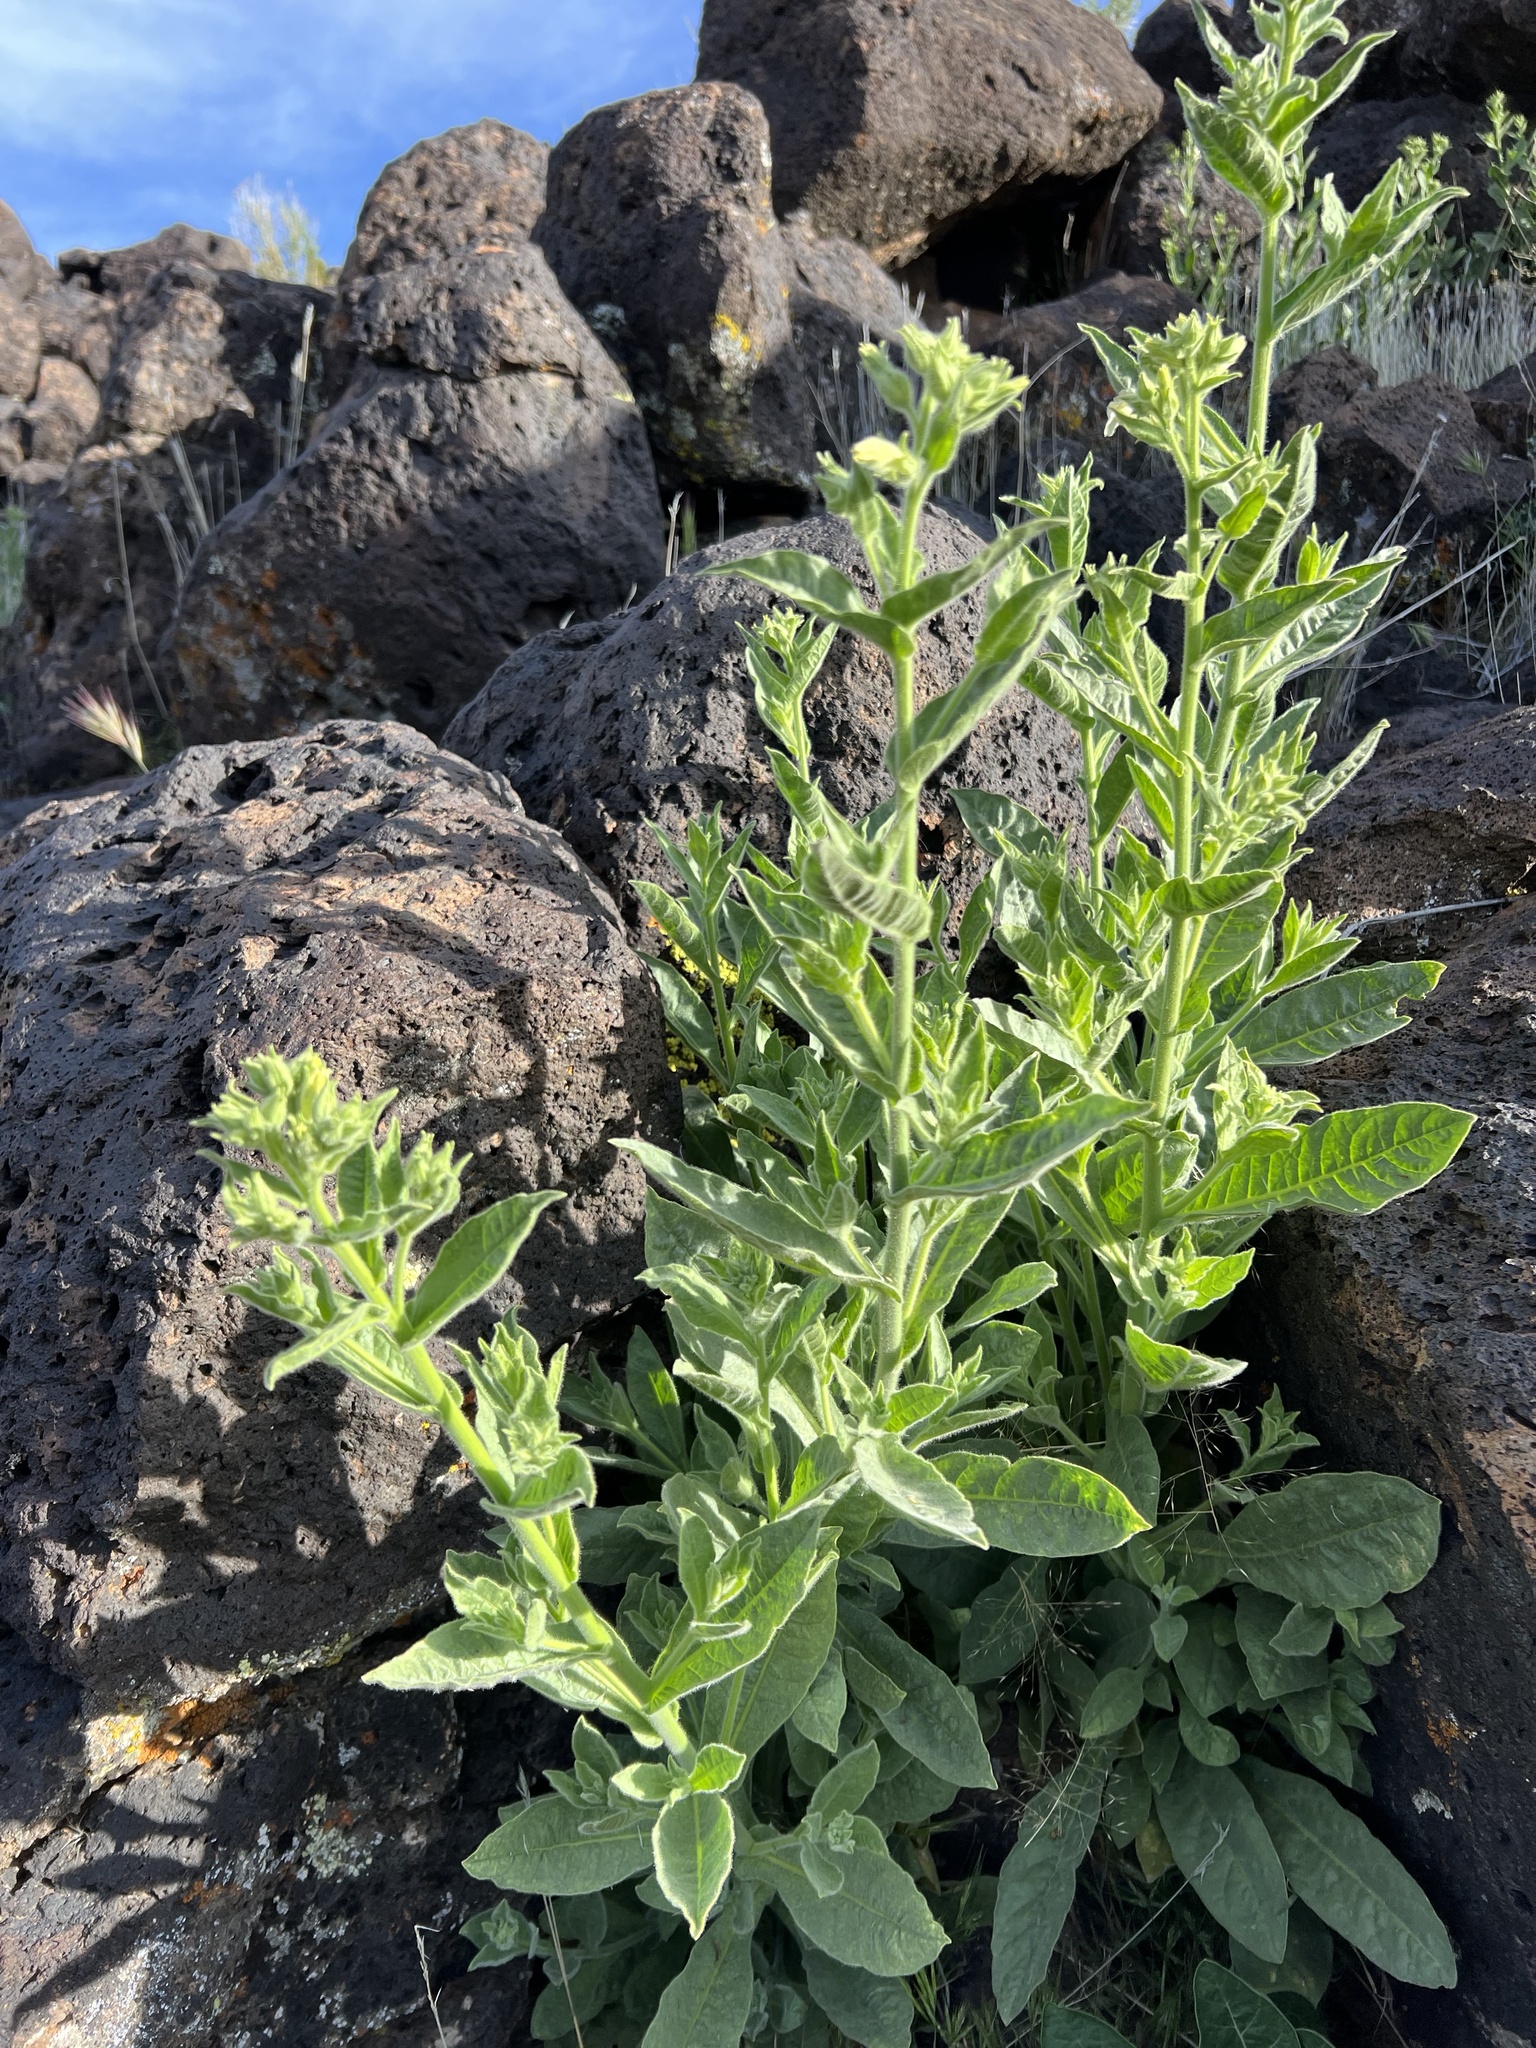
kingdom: Plantae
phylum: Tracheophyta
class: Magnoliopsida
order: Solanales
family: Solanaceae
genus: Nicotiana
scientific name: Nicotiana obtusifolia
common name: Desert tobacco
